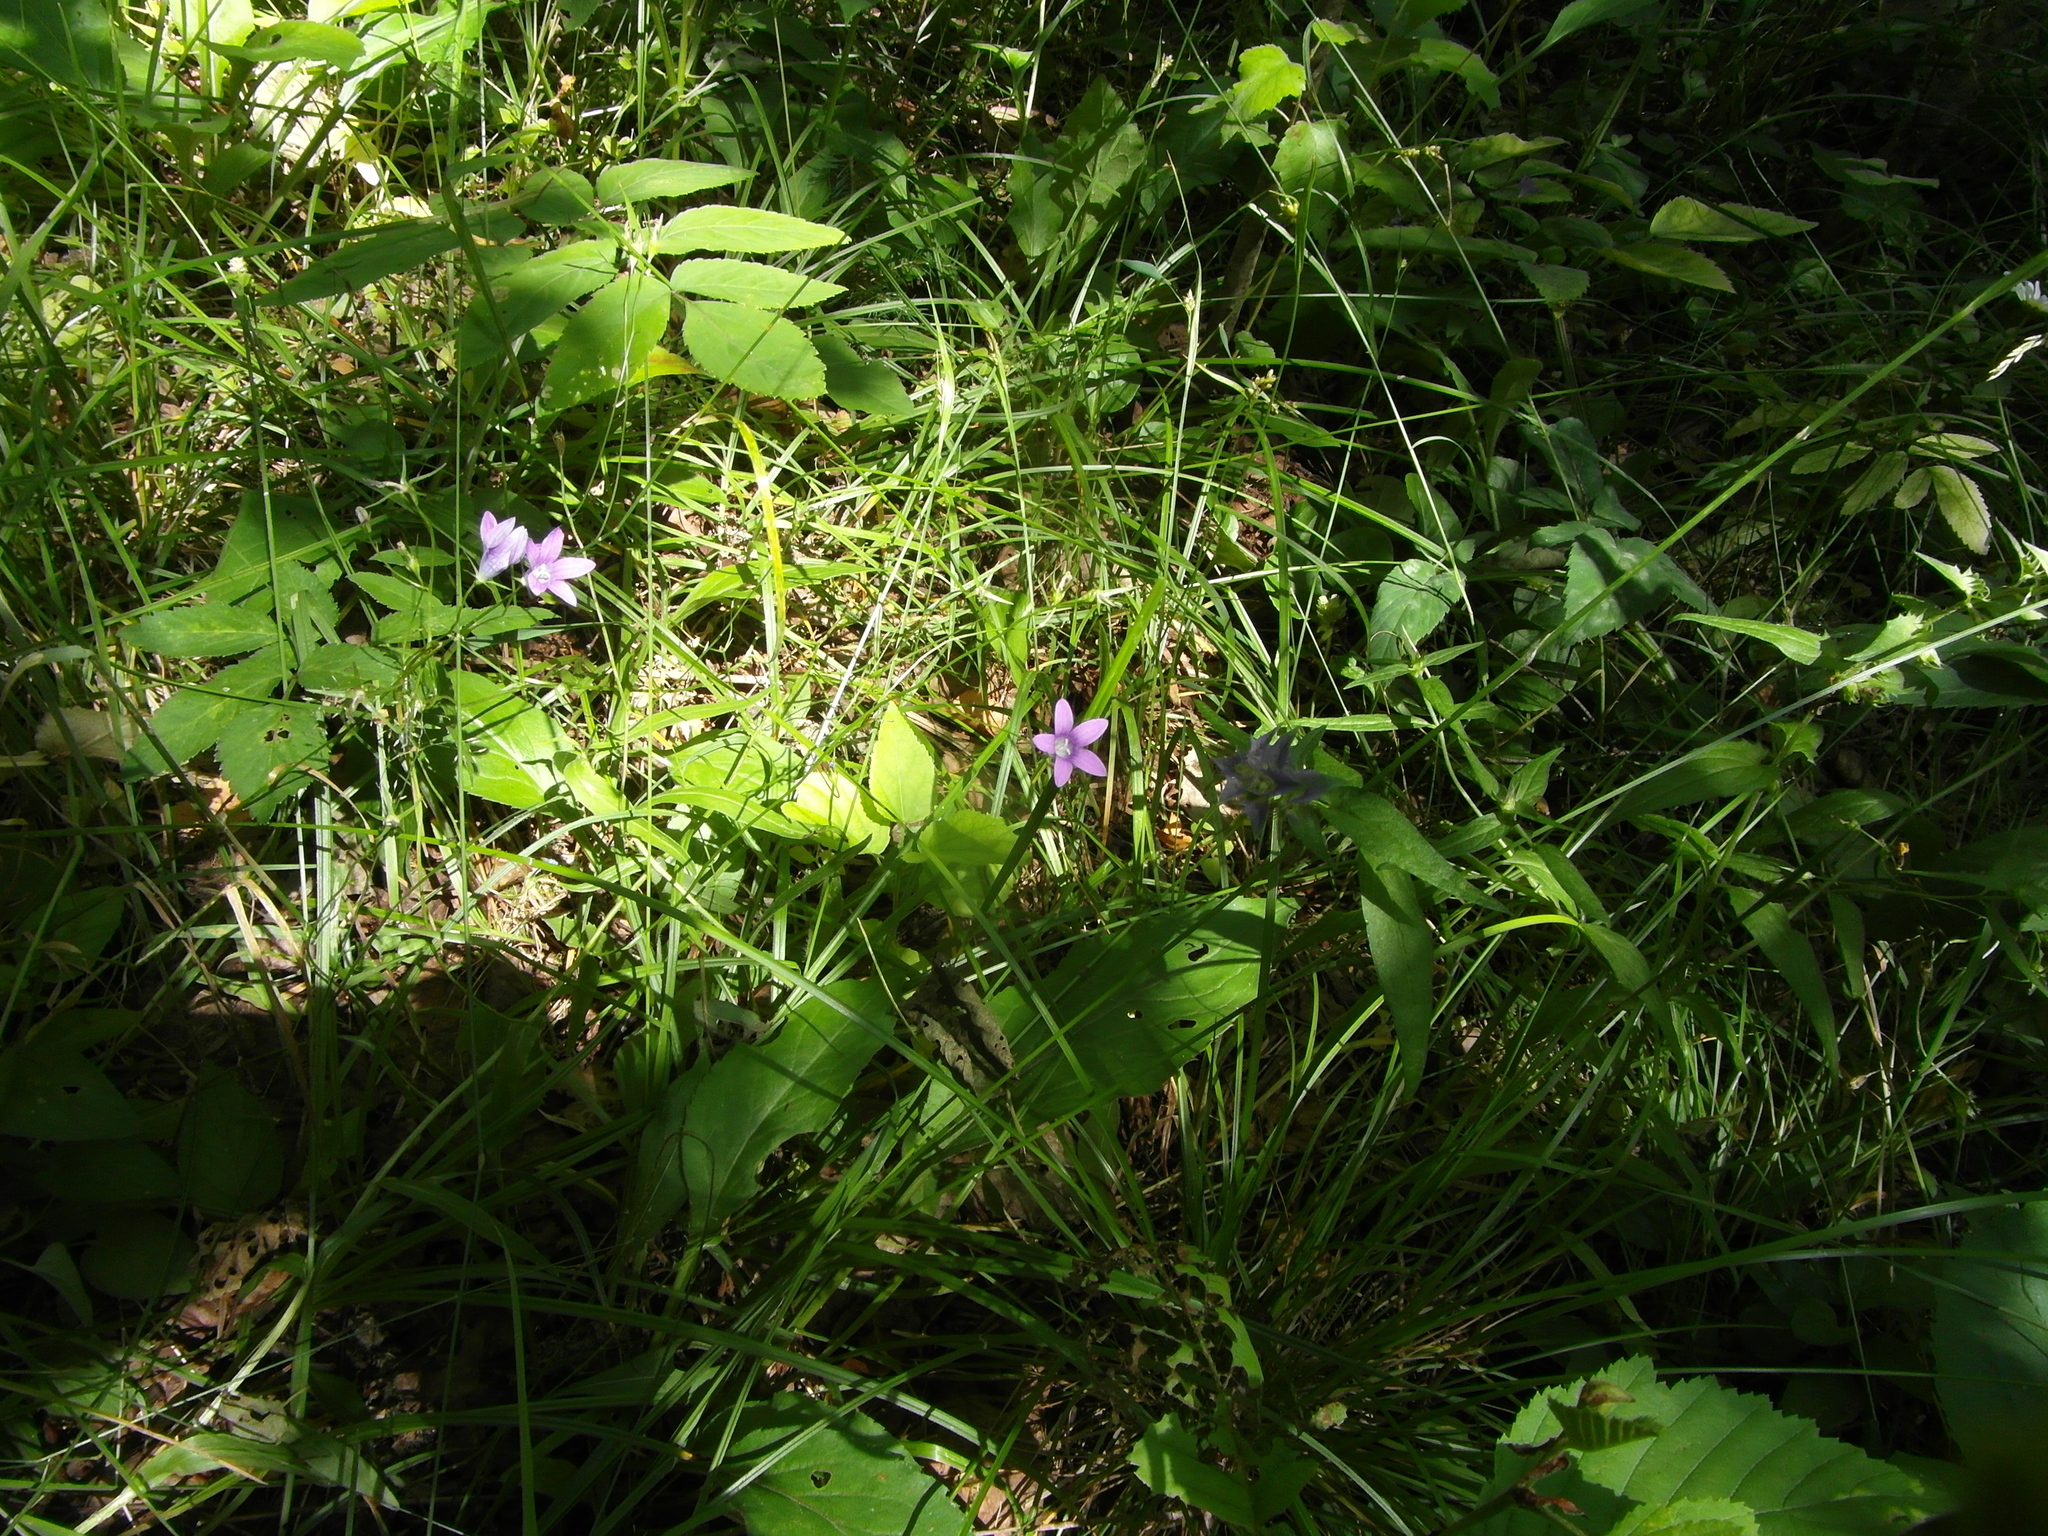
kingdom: Plantae
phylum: Tracheophyta
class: Magnoliopsida
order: Asterales
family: Campanulaceae
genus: Campanula
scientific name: Campanula patula
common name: Spreading bellflower
